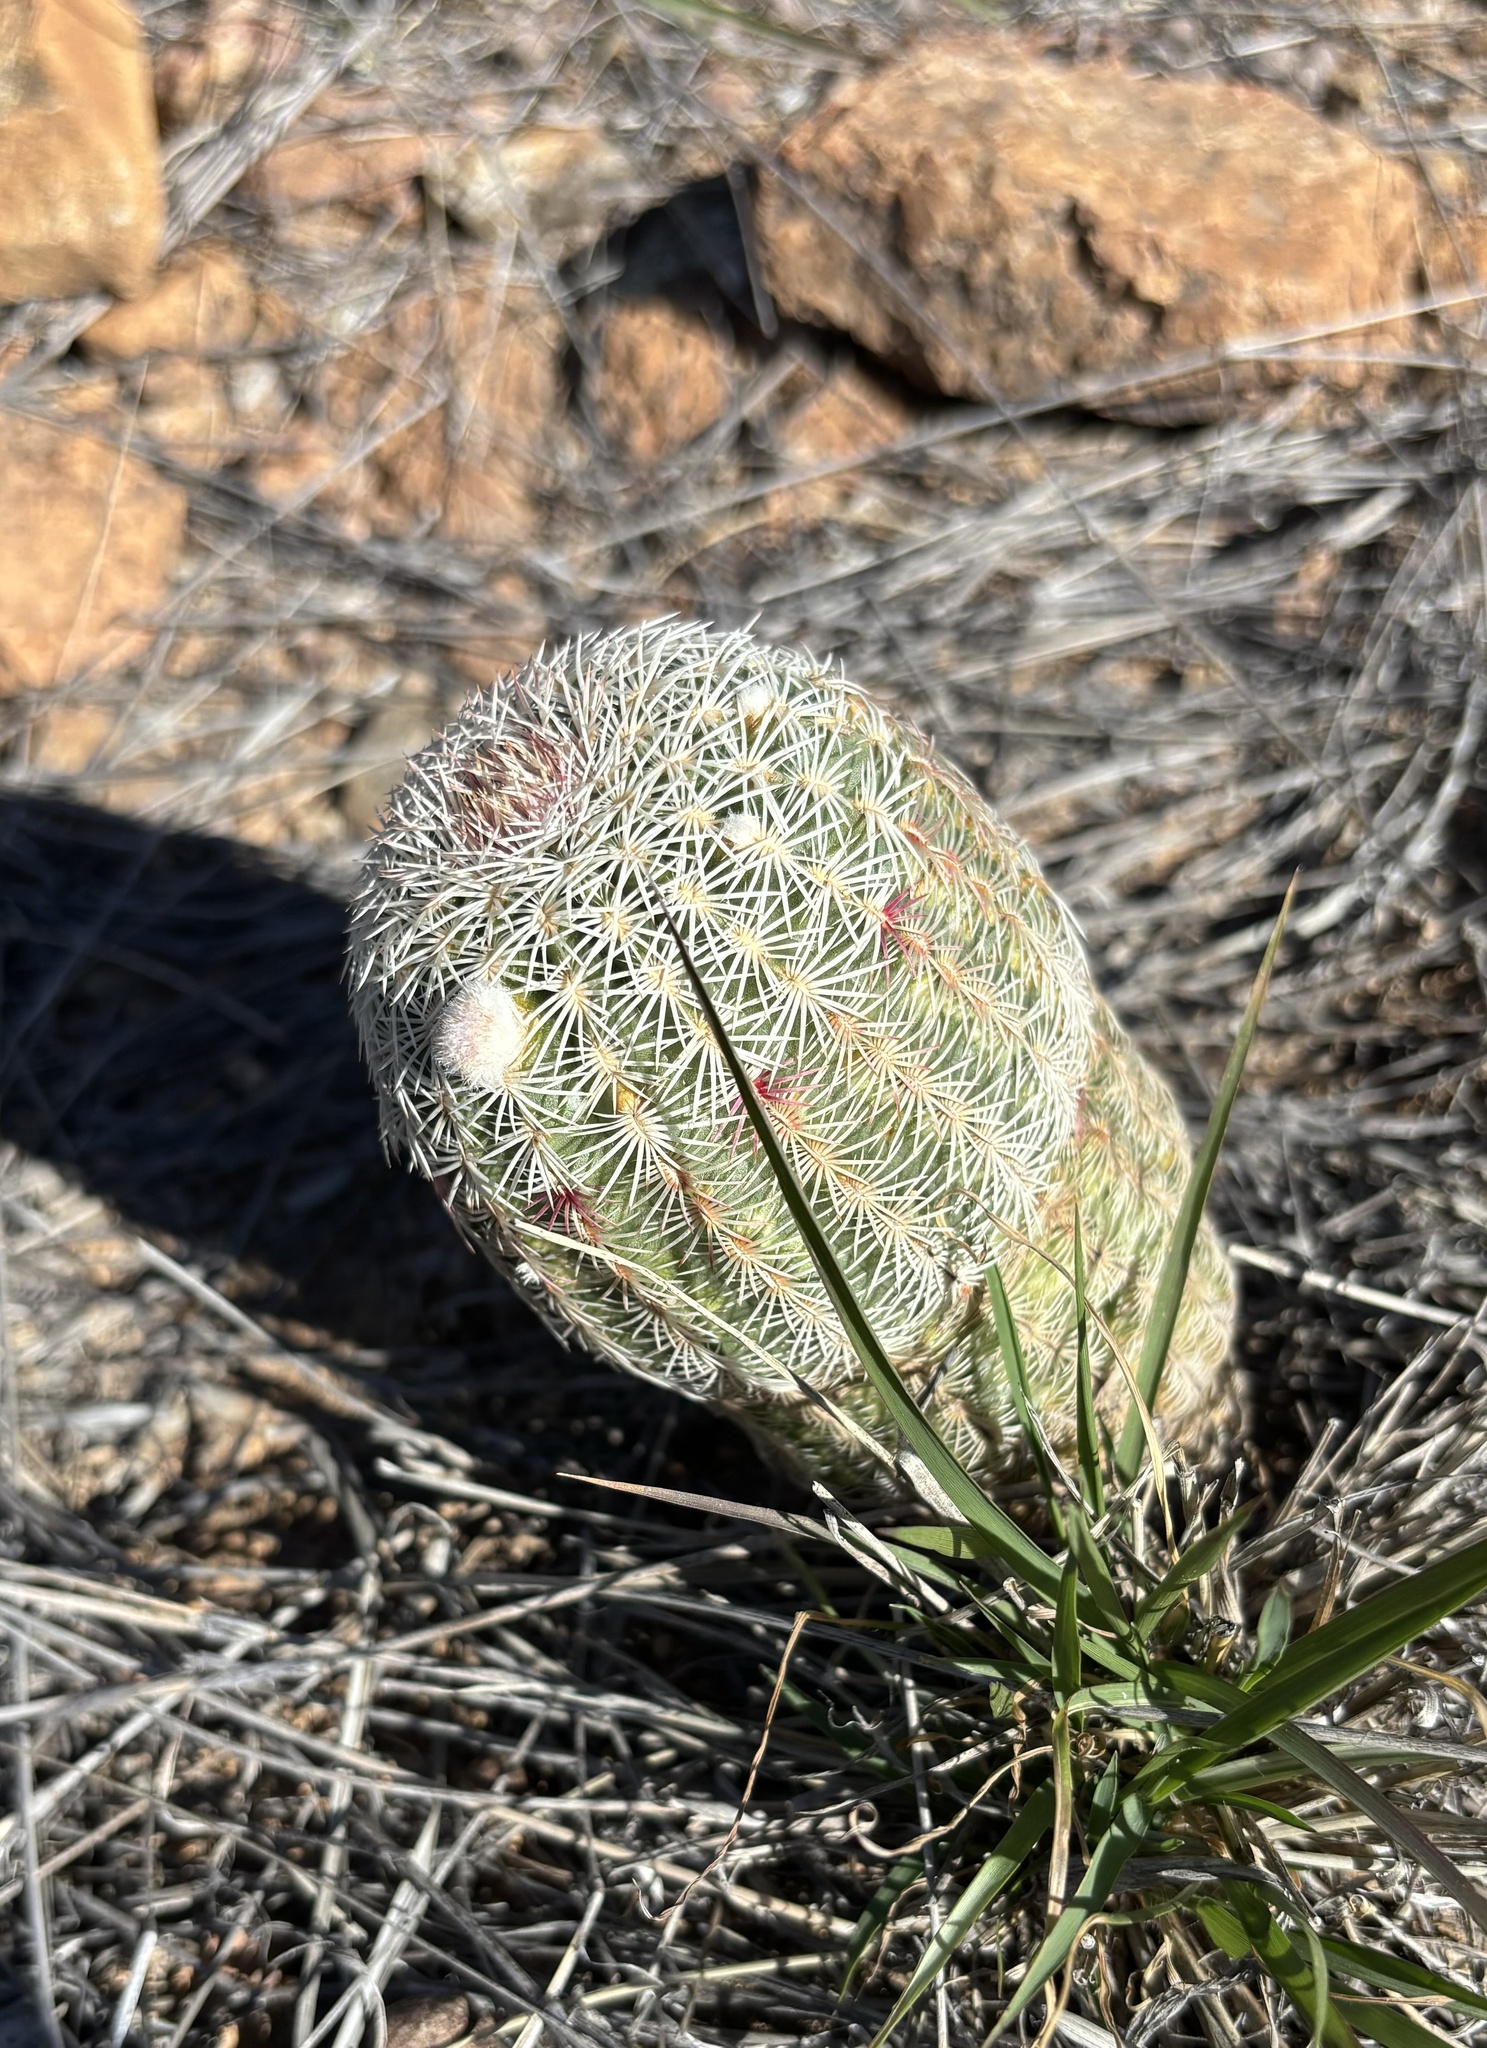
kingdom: Plantae
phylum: Tracheophyta
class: Magnoliopsida
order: Caryophyllales
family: Cactaceae
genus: Echinocereus
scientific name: Echinocereus rigidissimus
